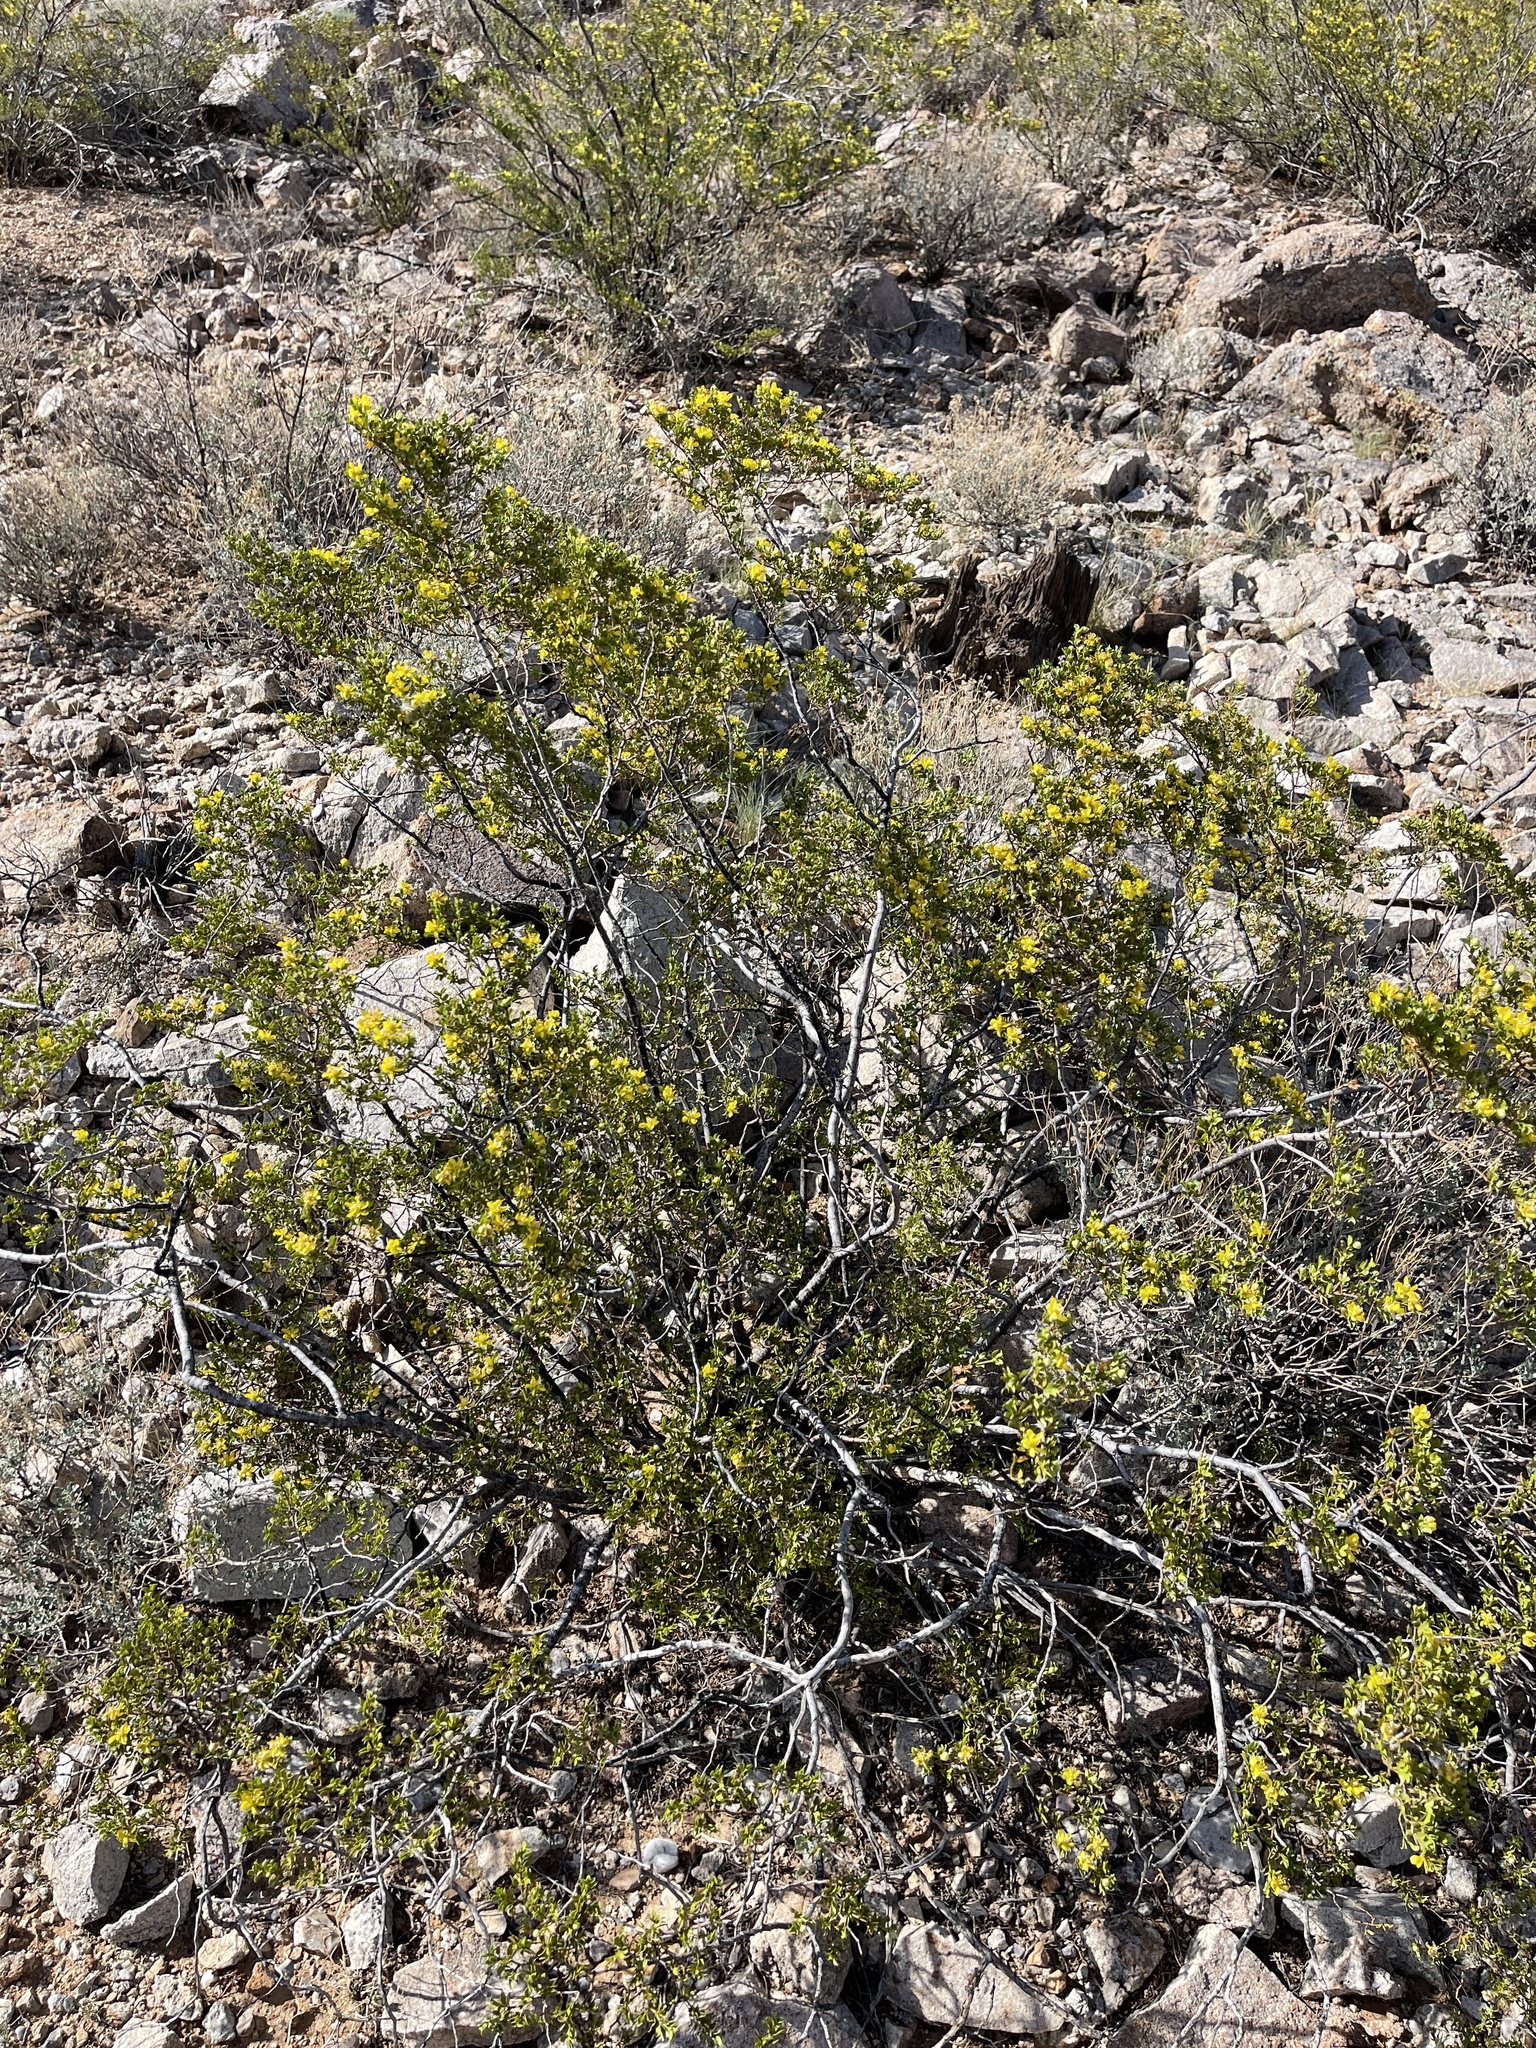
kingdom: Plantae
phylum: Tracheophyta
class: Magnoliopsida
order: Zygophyllales
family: Zygophyllaceae
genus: Larrea
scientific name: Larrea tridentata
